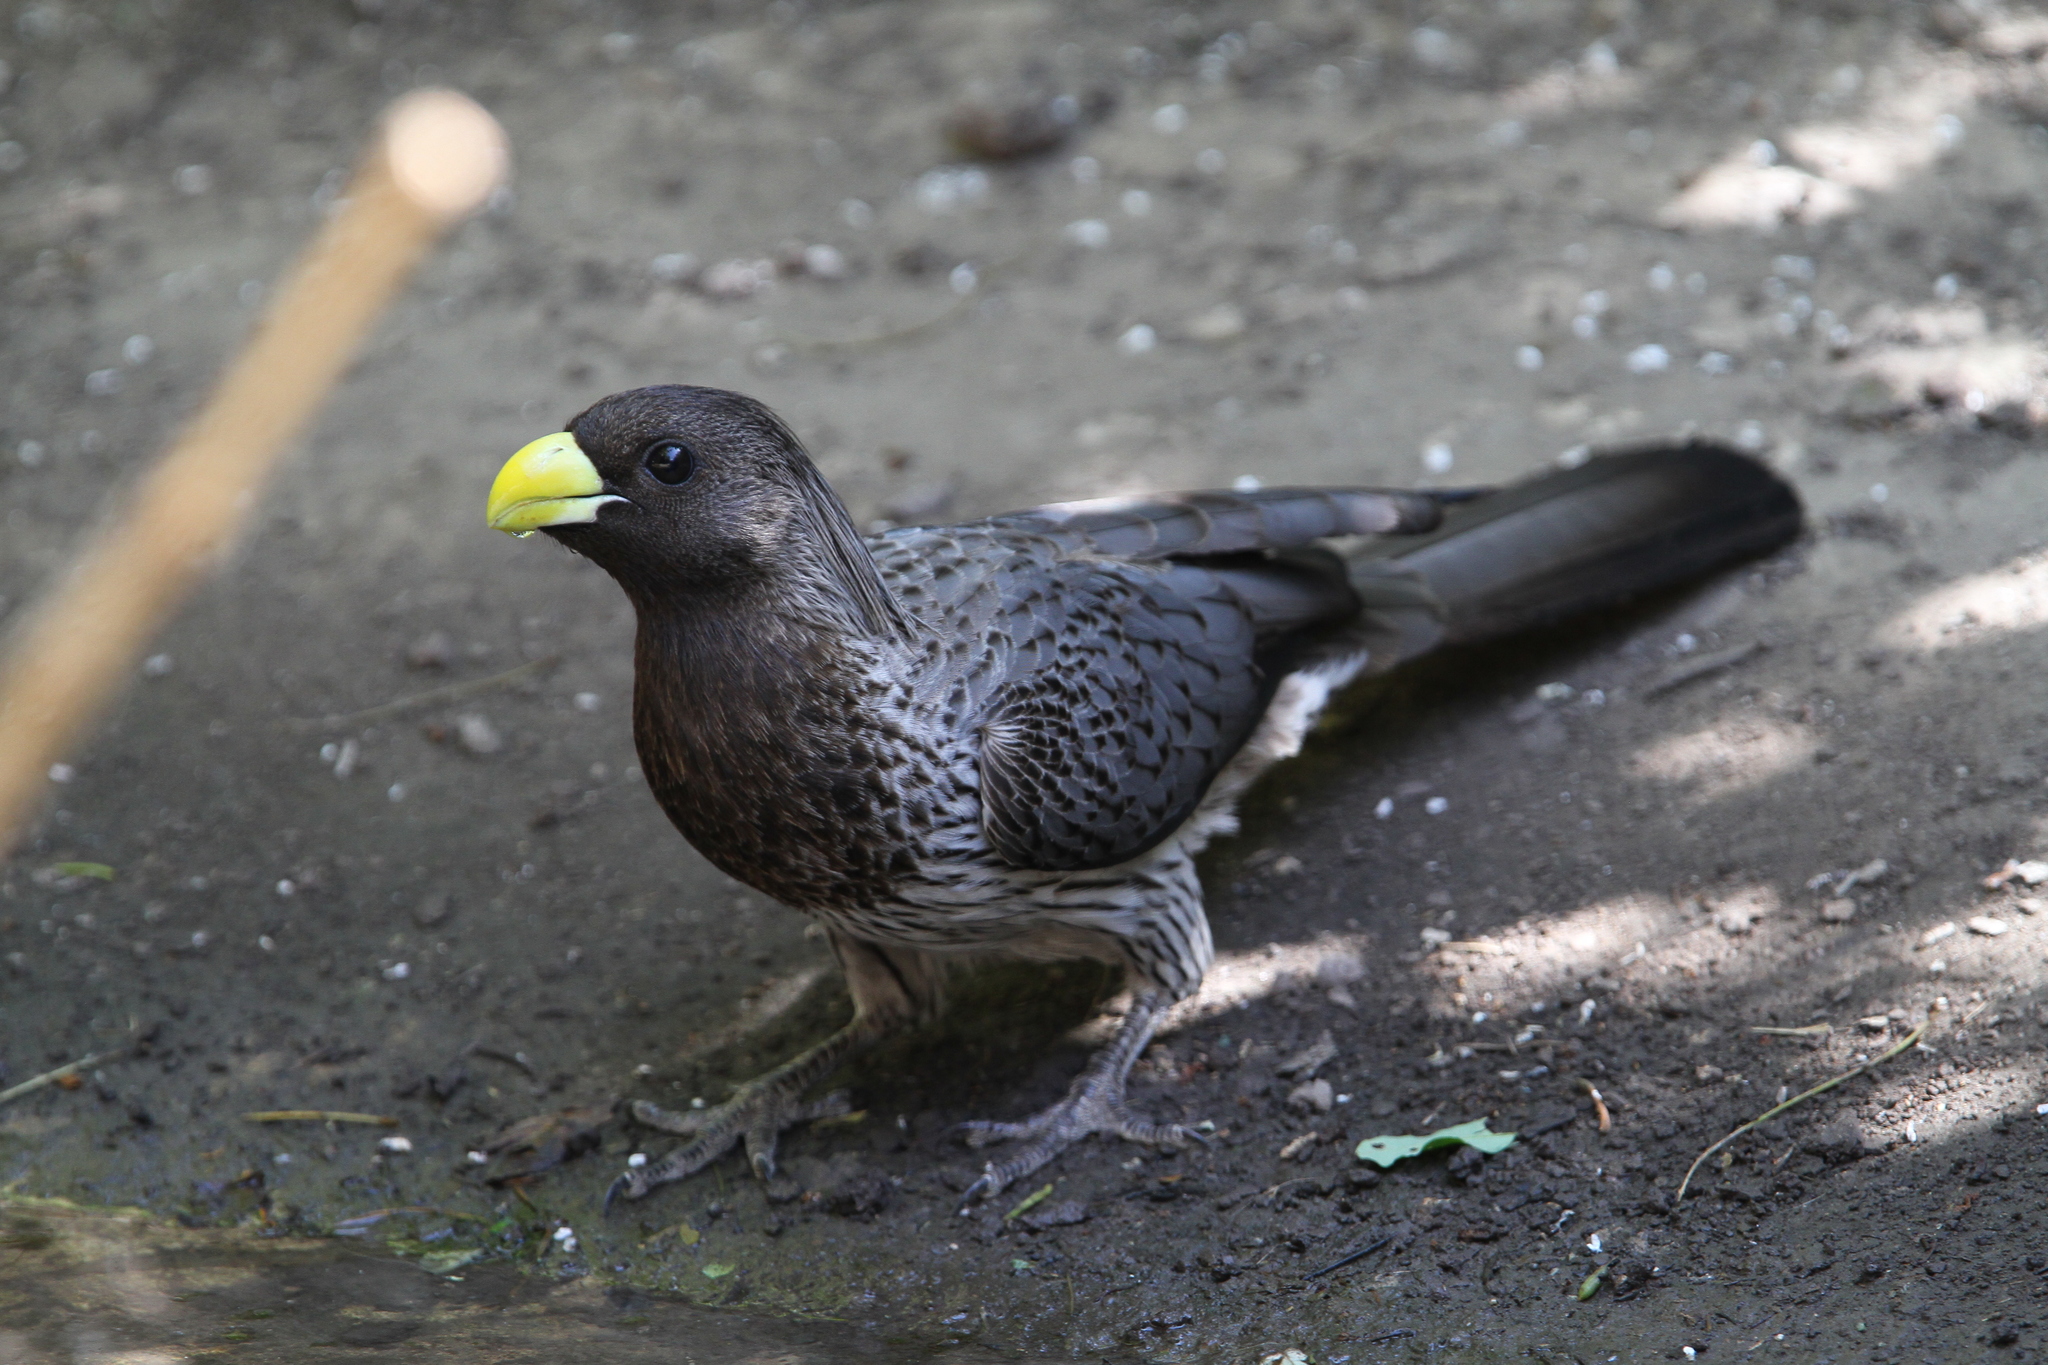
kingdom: Animalia
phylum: Chordata
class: Aves
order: Musophagiformes
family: Musophagidae
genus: Crinifer
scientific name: Crinifer piscator
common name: Western plantain-eater
